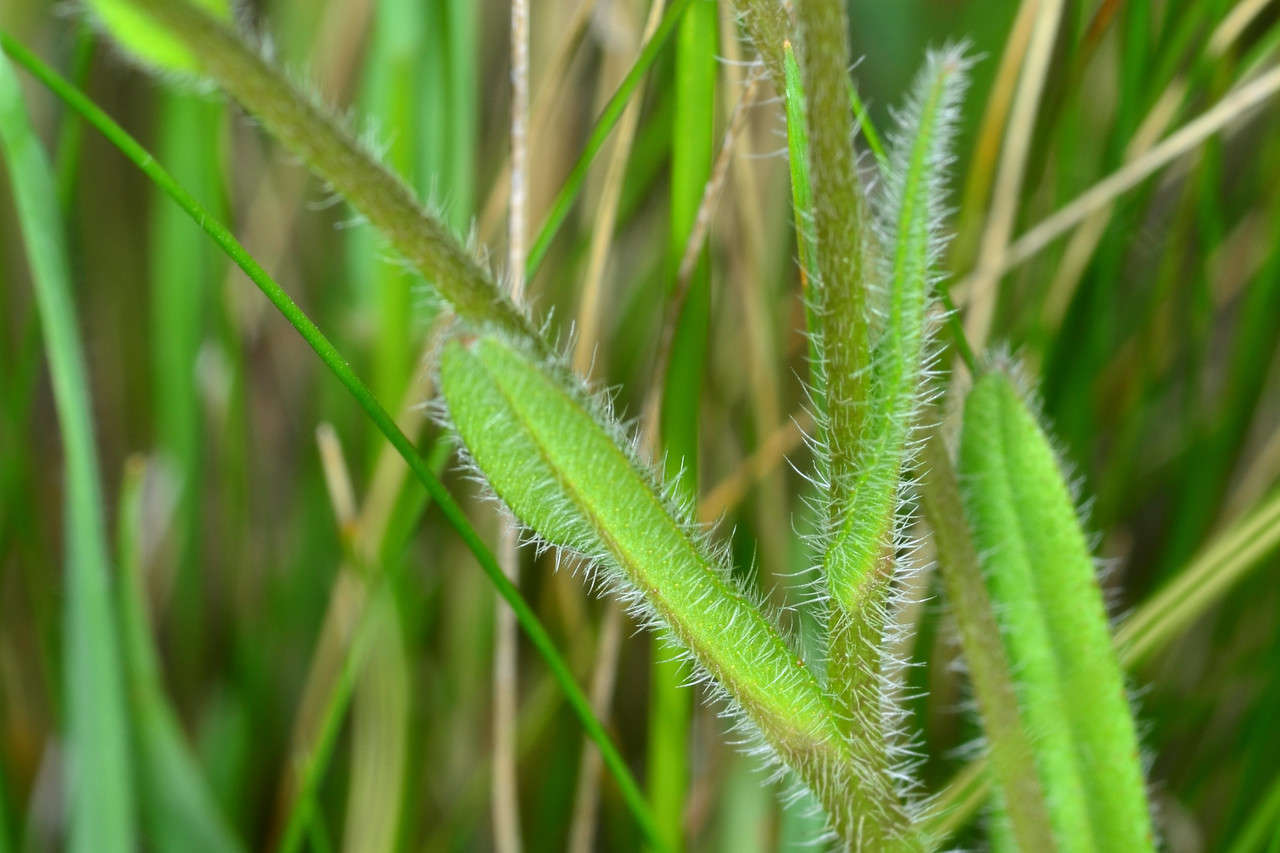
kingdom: Plantae
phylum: Tracheophyta
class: Magnoliopsida
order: Boraginales
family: Boraginaceae
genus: Myosotis
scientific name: Myosotis discolor
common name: Changing forget-me-not
